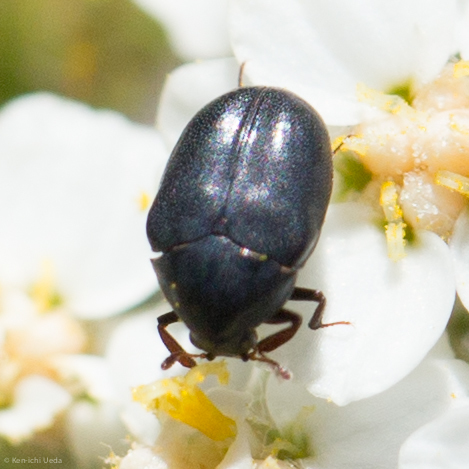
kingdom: Animalia
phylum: Arthropoda
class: Insecta
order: Coleoptera
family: Dermestidae
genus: Orphilus
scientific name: Orphilus subnitidus
